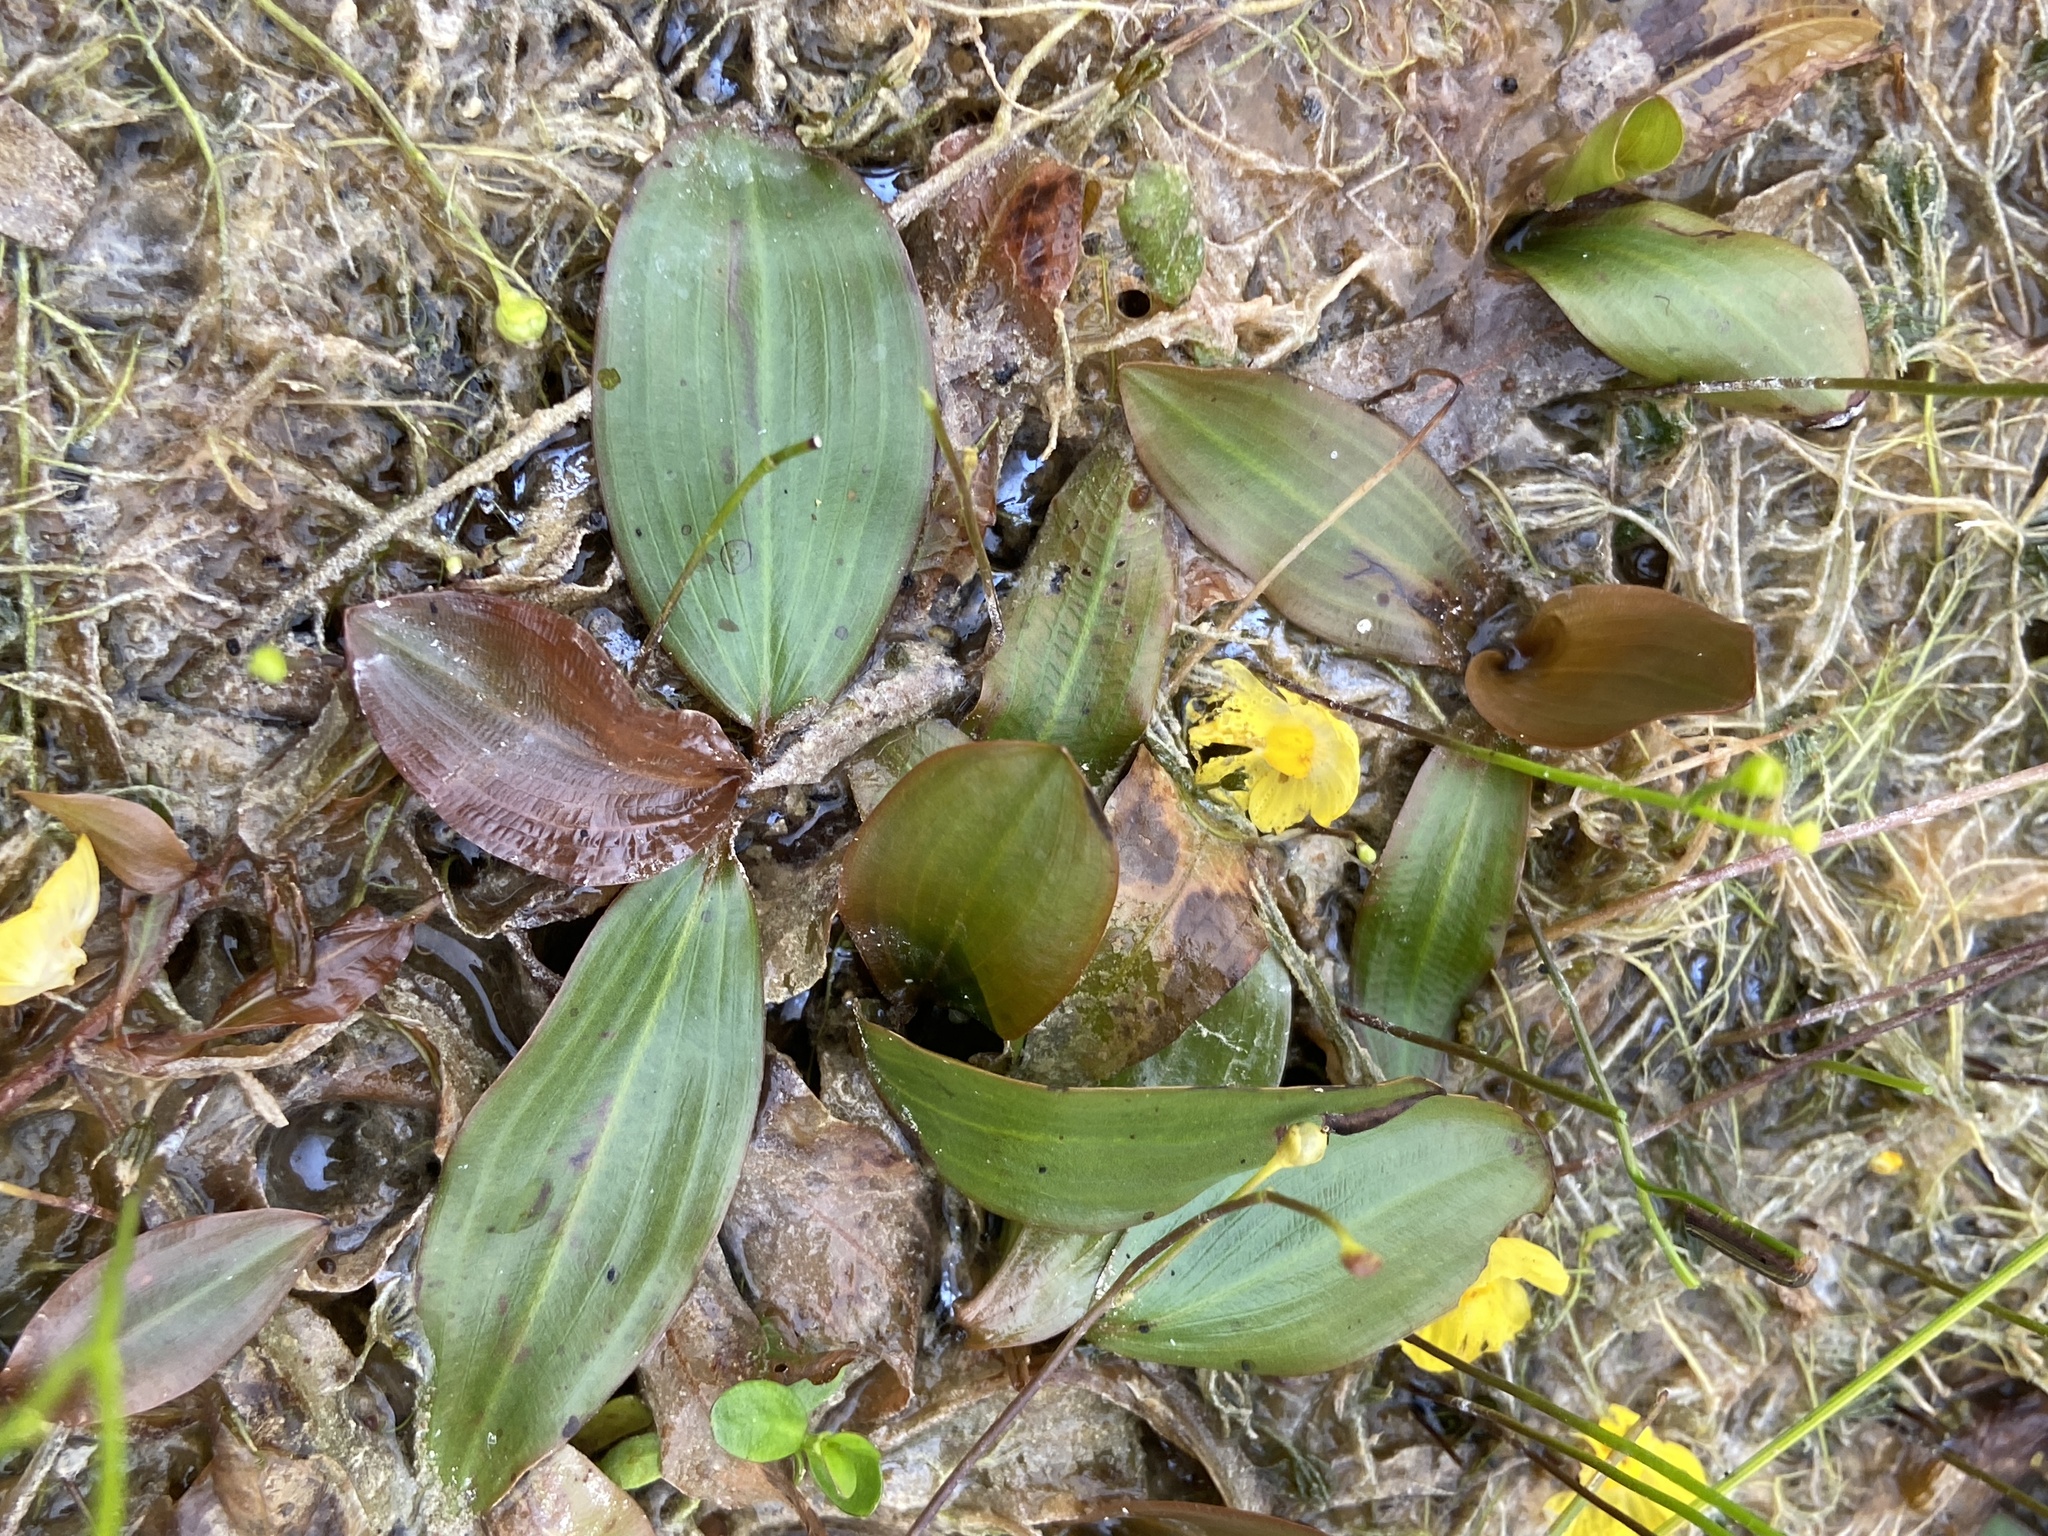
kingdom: Plantae
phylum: Tracheophyta
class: Liliopsida
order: Alismatales
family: Potamogetonaceae
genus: Potamogeton
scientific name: Potamogeton illinoensis
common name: Illinois pondweed
